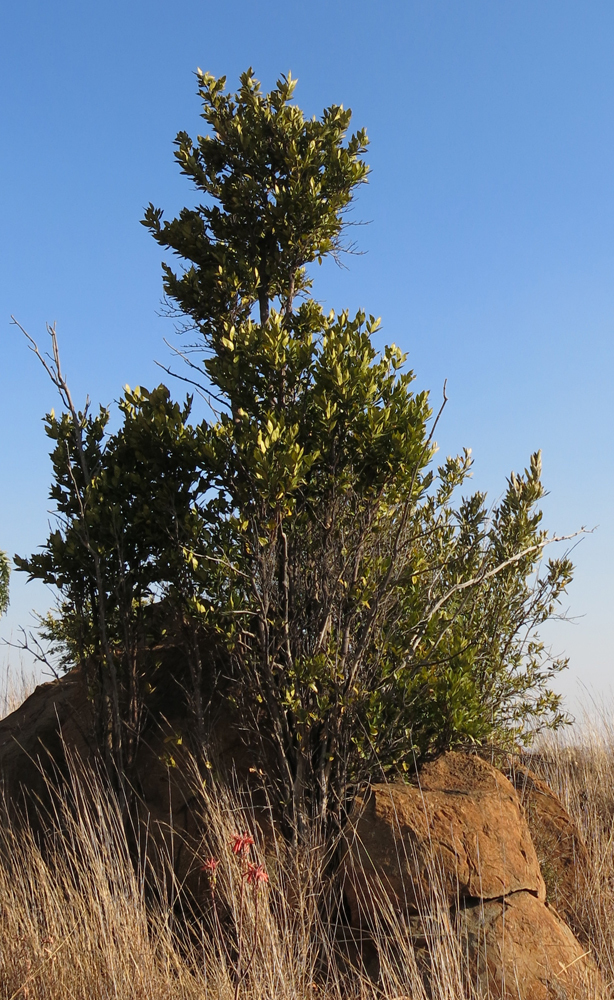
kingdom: Plantae
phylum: Tracheophyta
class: Magnoliopsida
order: Gentianales
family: Rubiaceae
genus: Rothmannia
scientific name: Rothmannia capensis
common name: Cape gardenia
